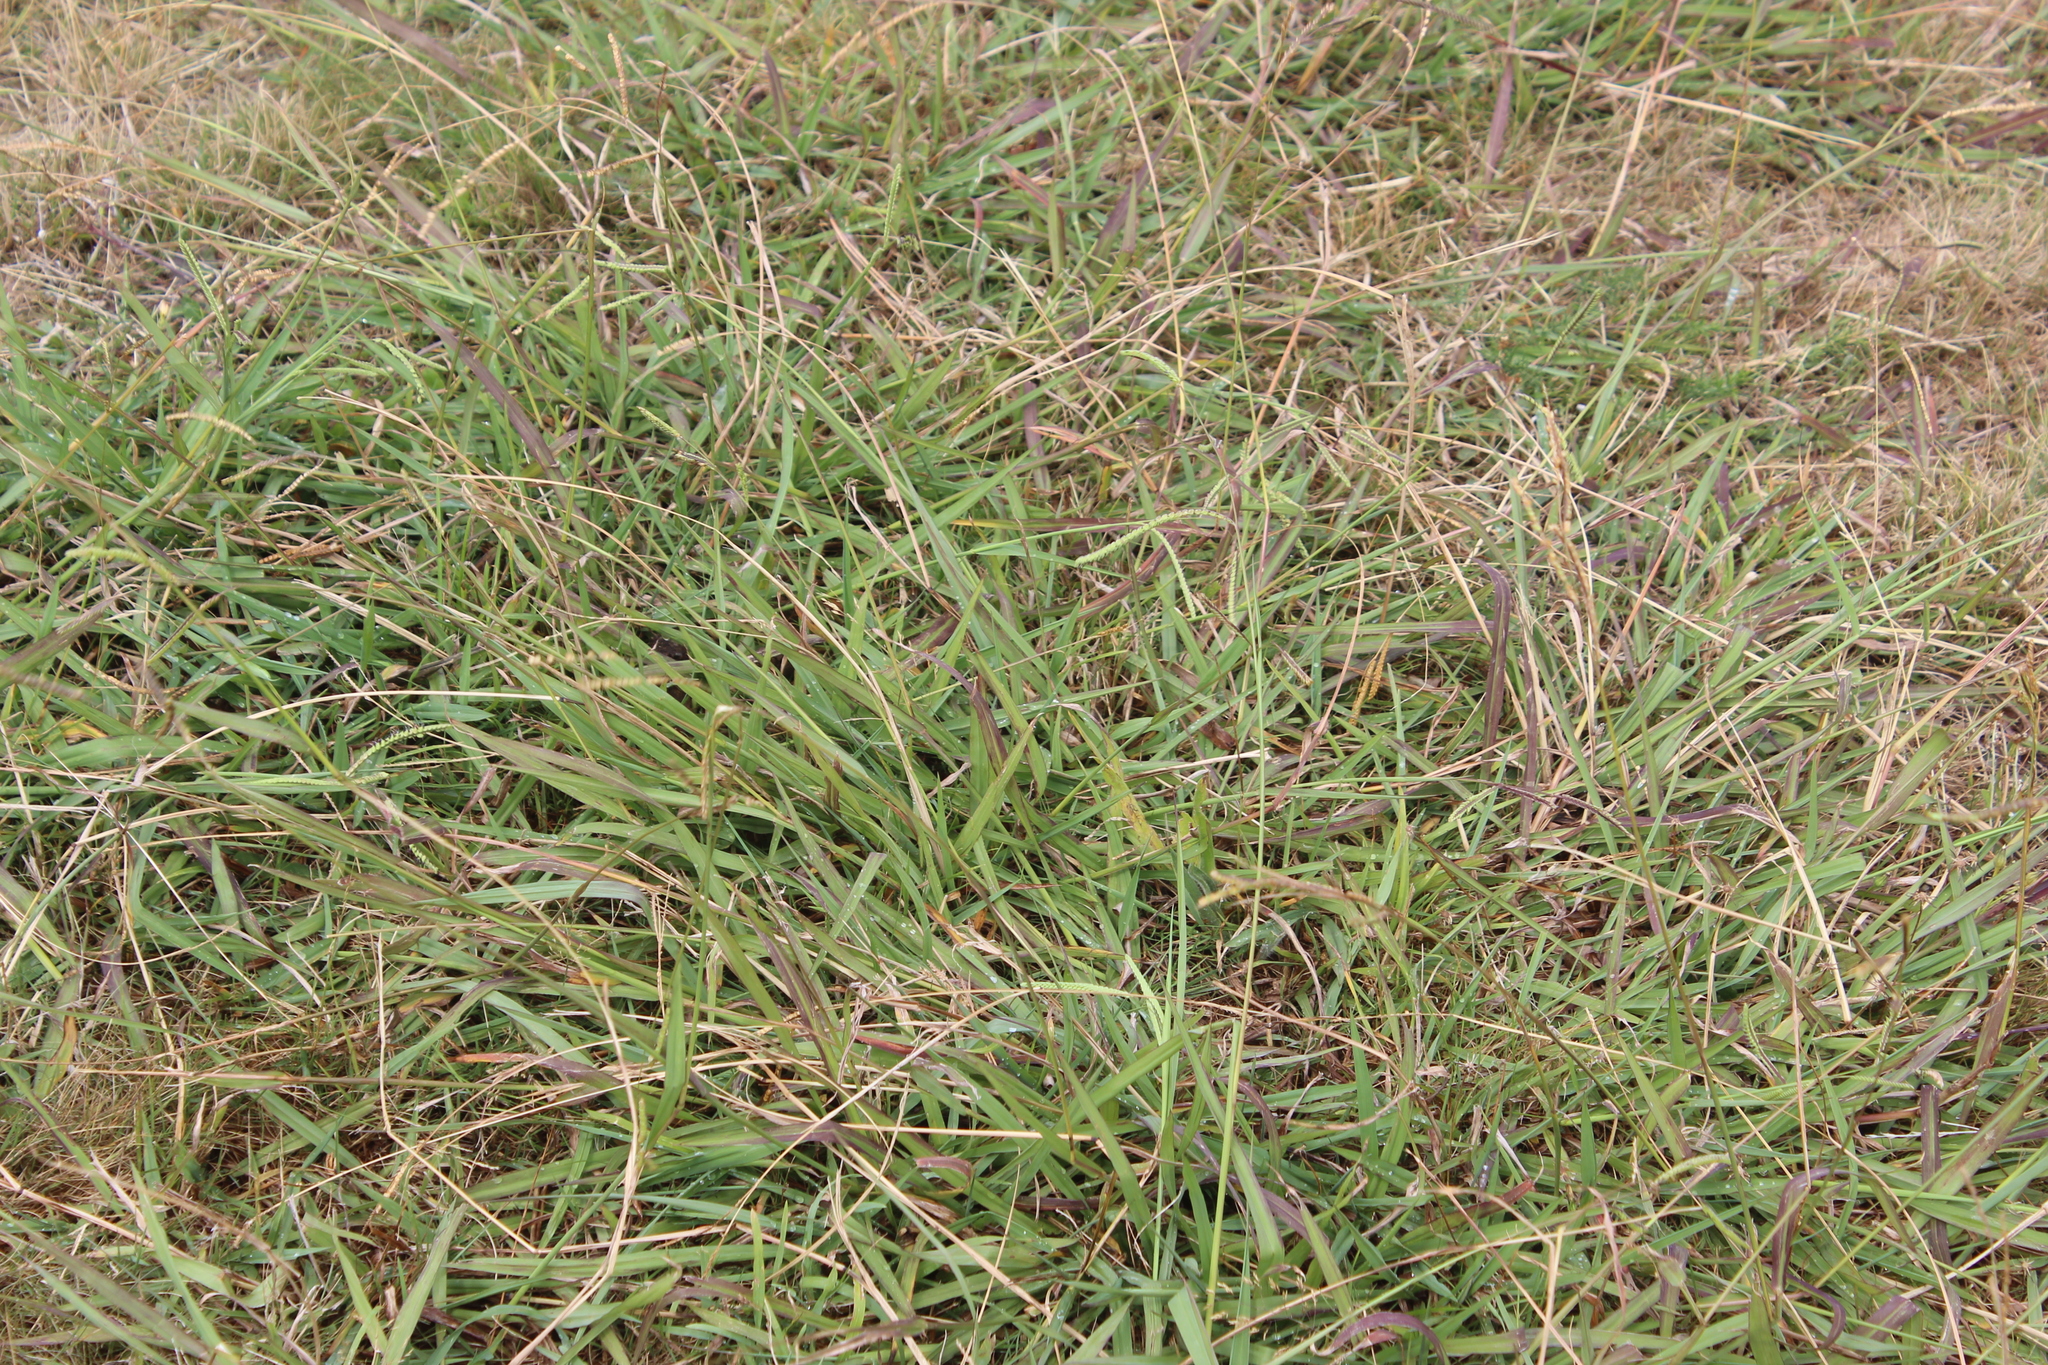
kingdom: Plantae
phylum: Tracheophyta
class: Liliopsida
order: Poales
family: Poaceae
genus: Paspalum
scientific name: Paspalum dilatatum
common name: Dallisgrass
